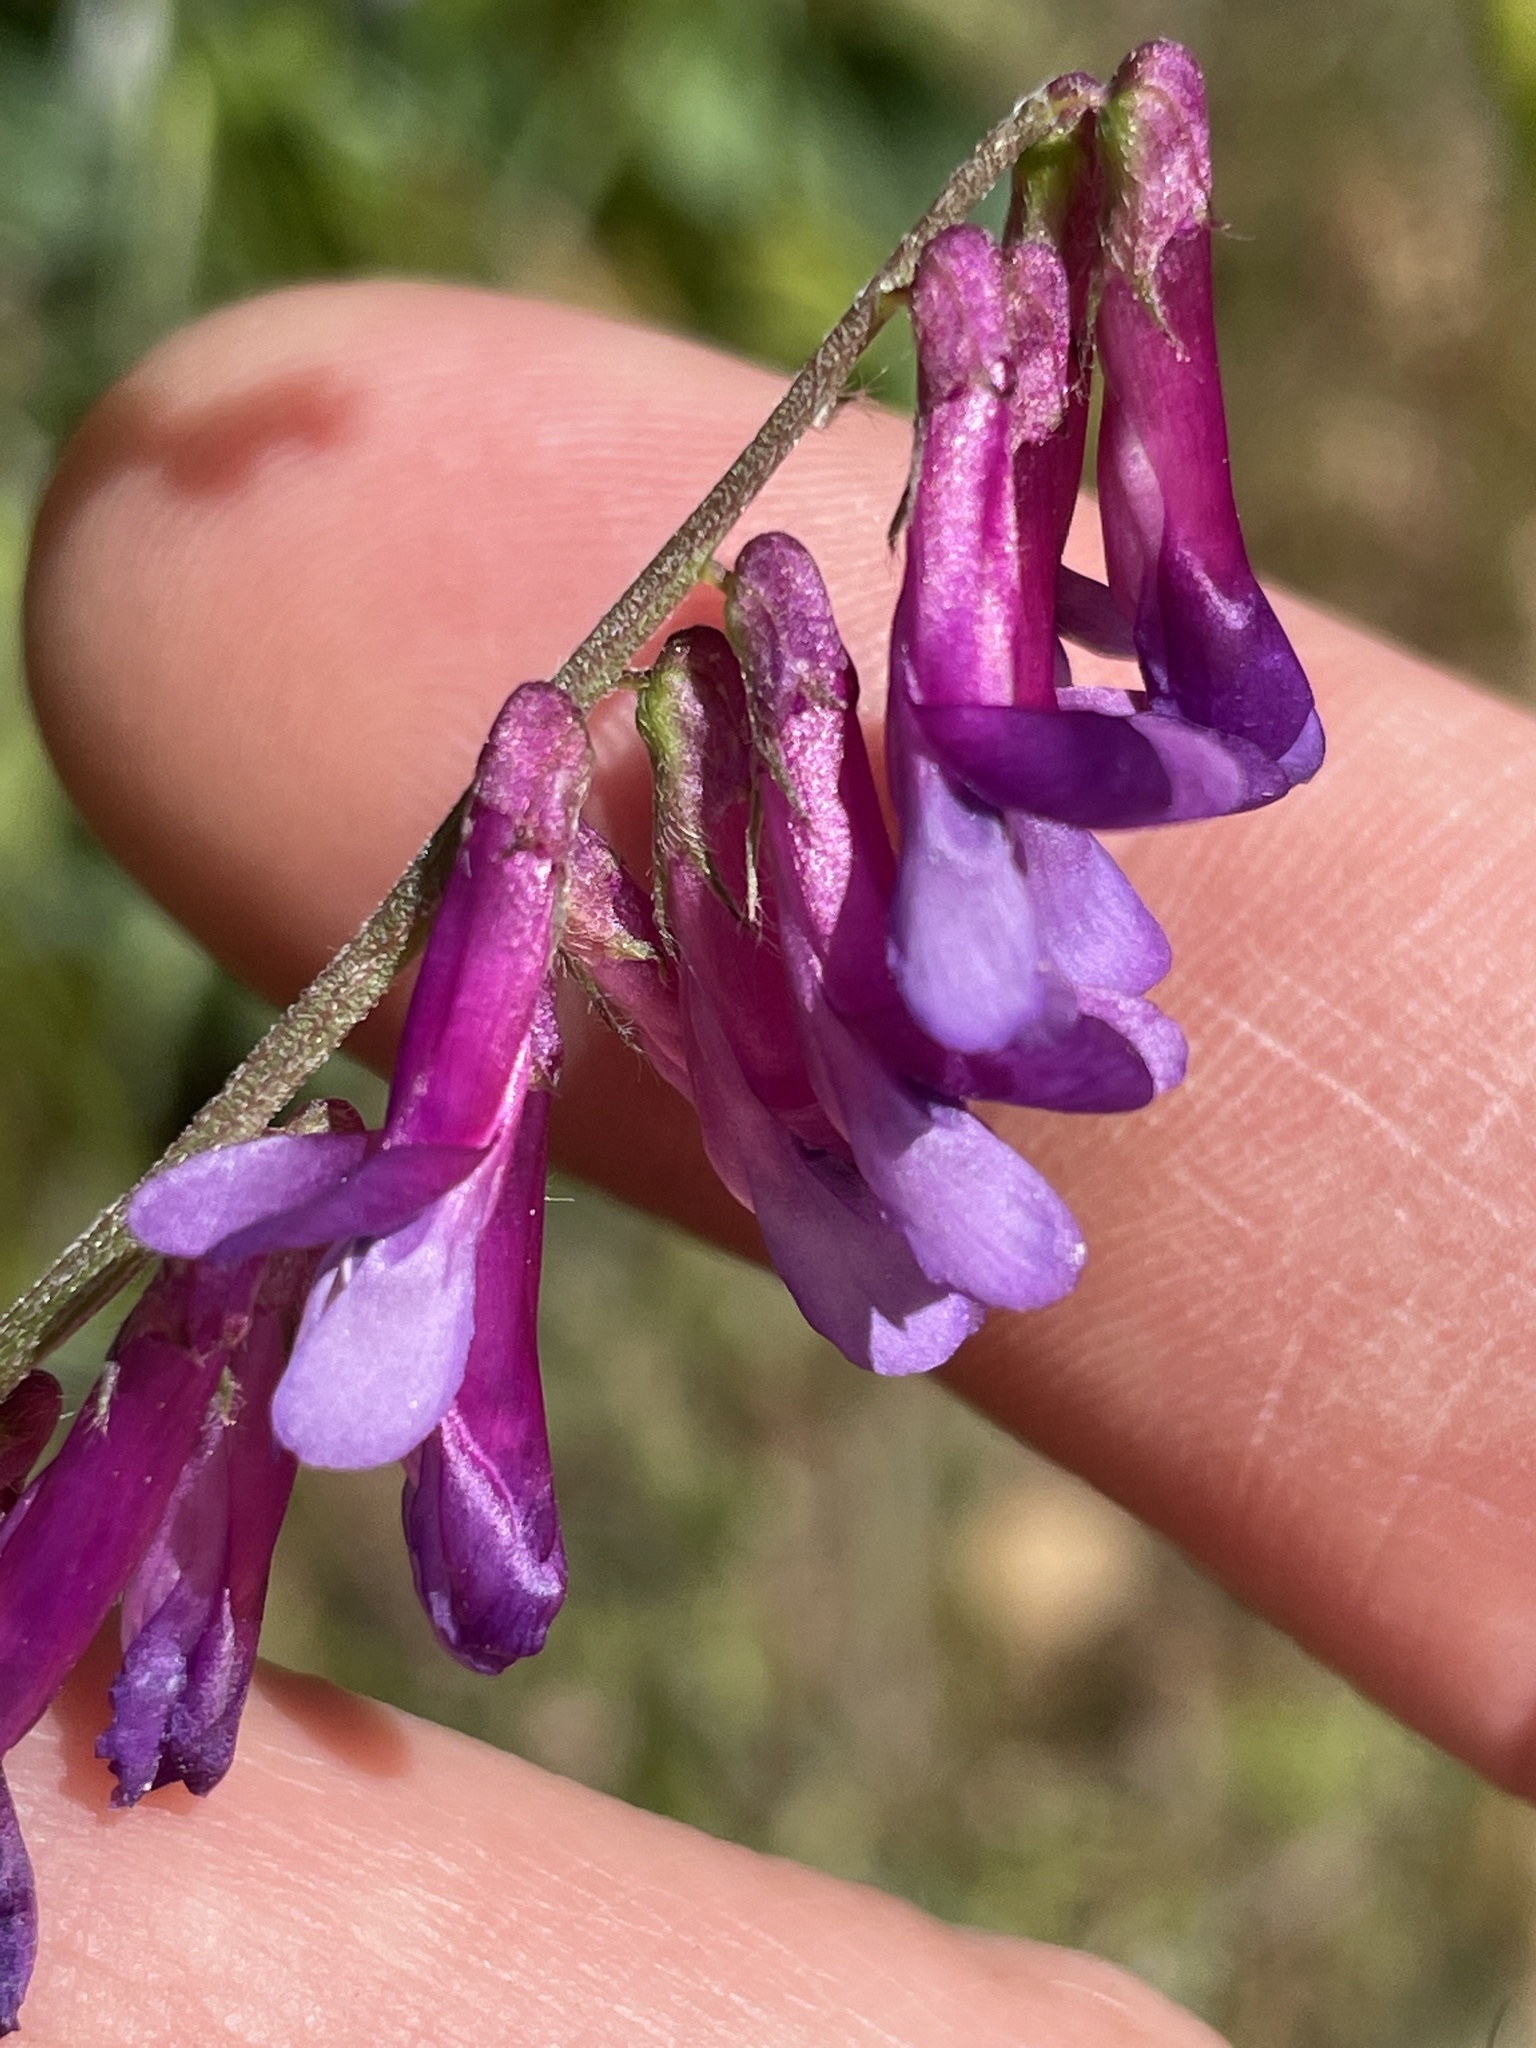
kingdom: Plantae
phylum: Tracheophyta
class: Magnoliopsida
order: Fabales
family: Fabaceae
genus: Vicia
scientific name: Vicia villosa
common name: Fodder vetch
